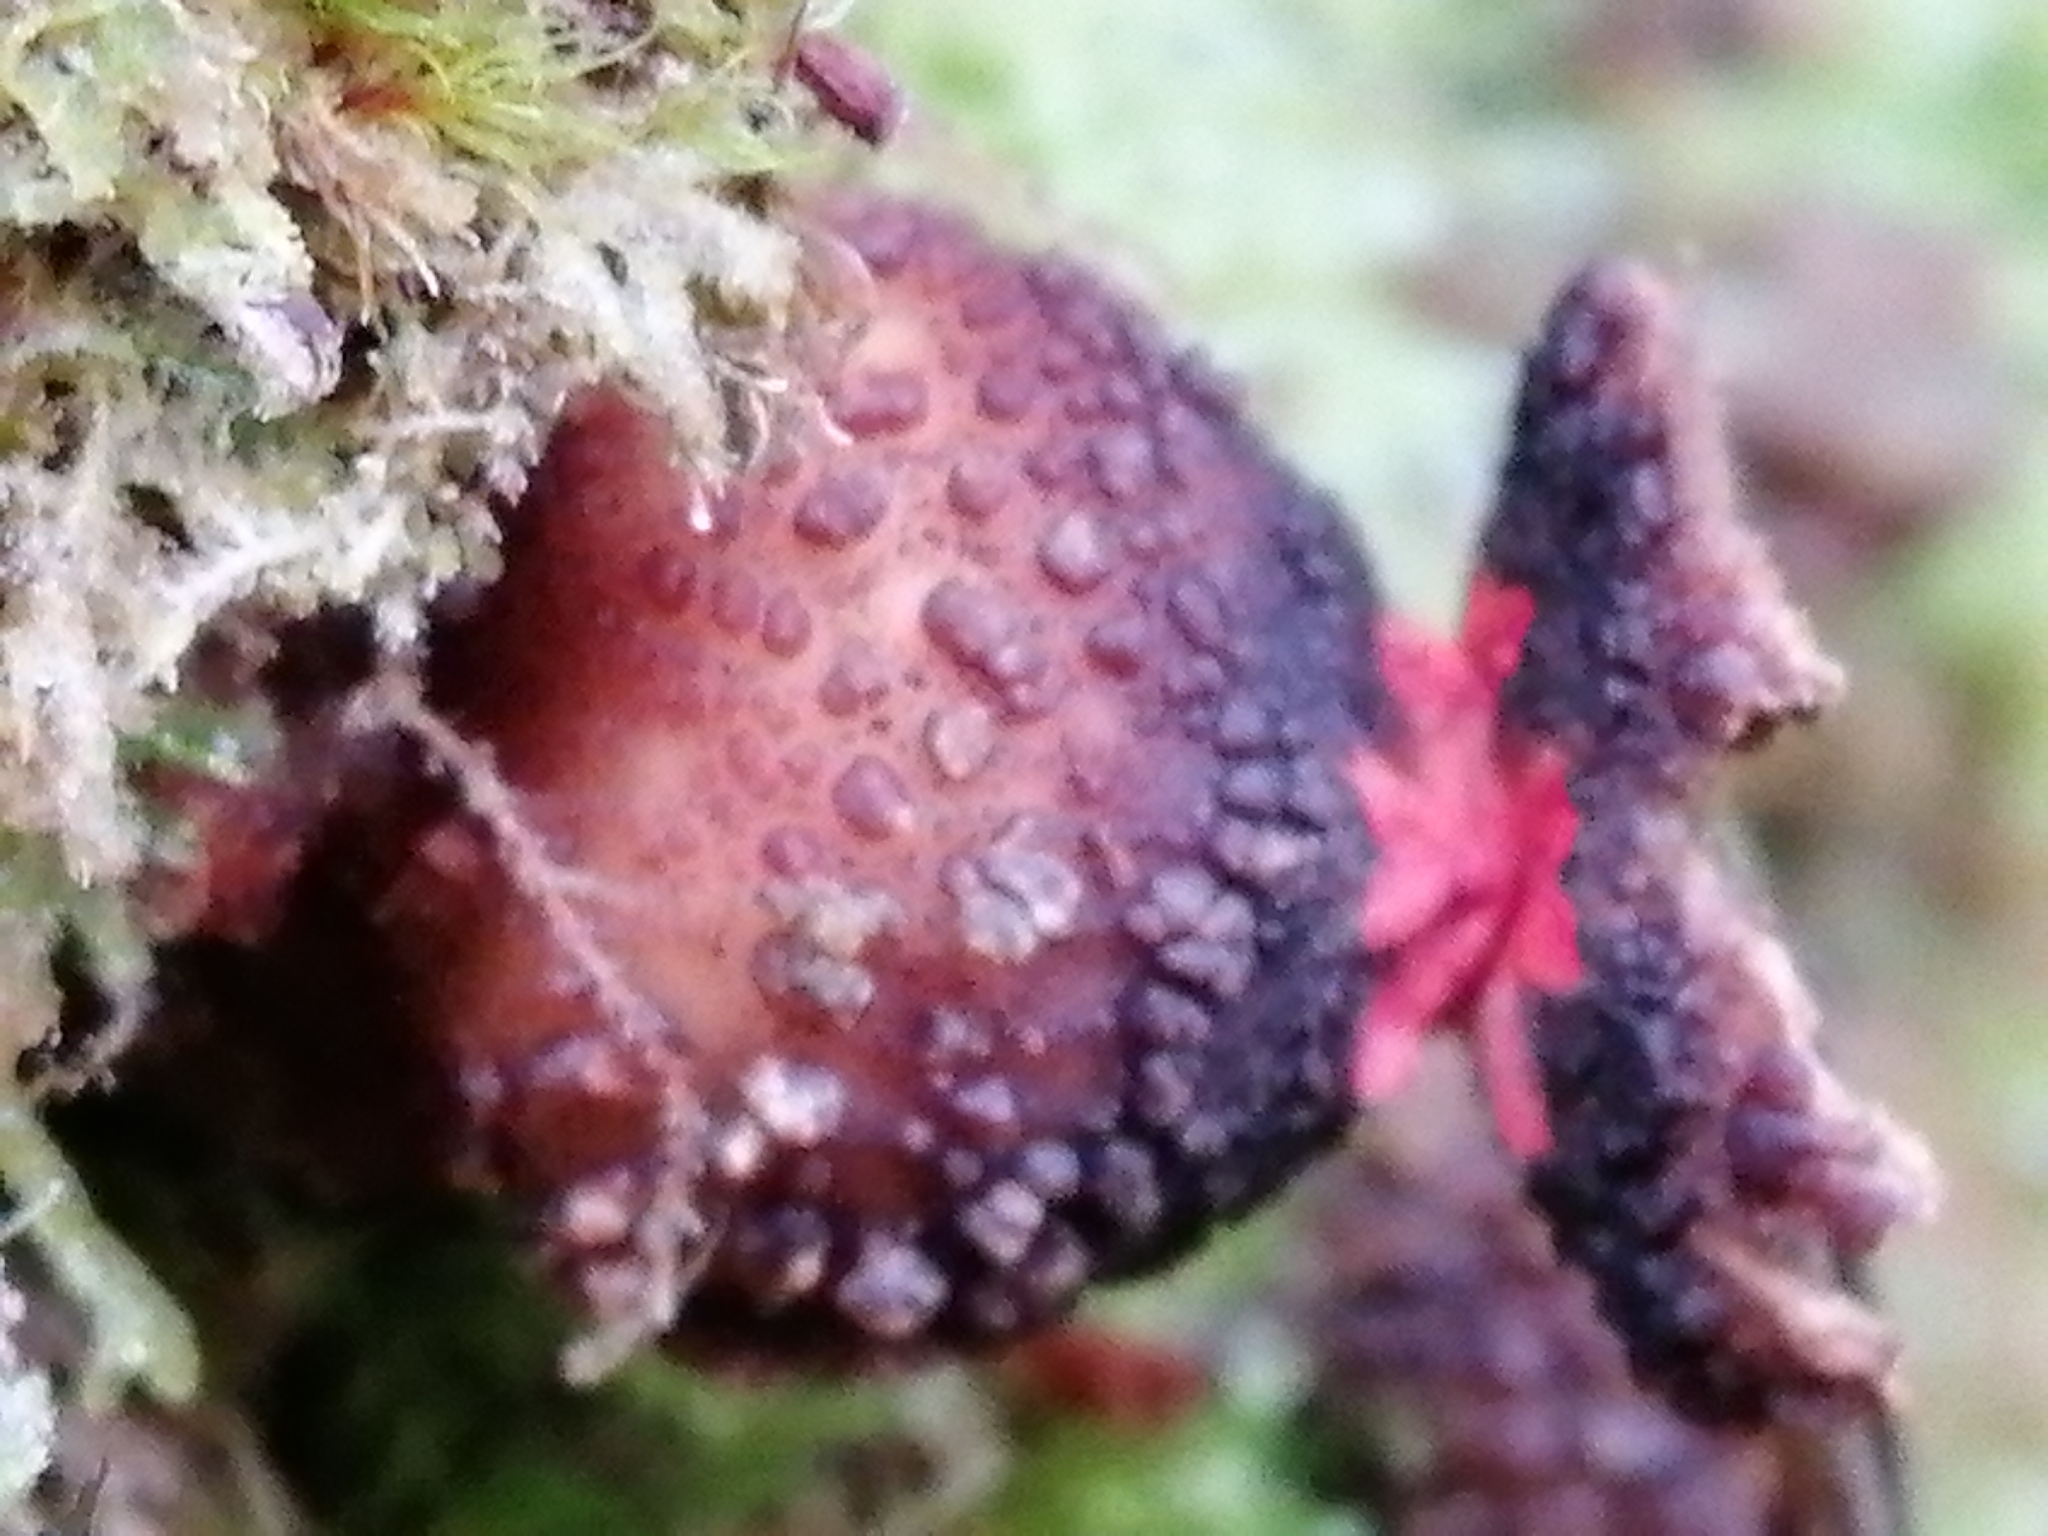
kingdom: Fungi
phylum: Basidiomycota
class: Agaricomycetes
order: Boletales
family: Calostomataceae
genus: Calostoma
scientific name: Calostoma rodwayi
